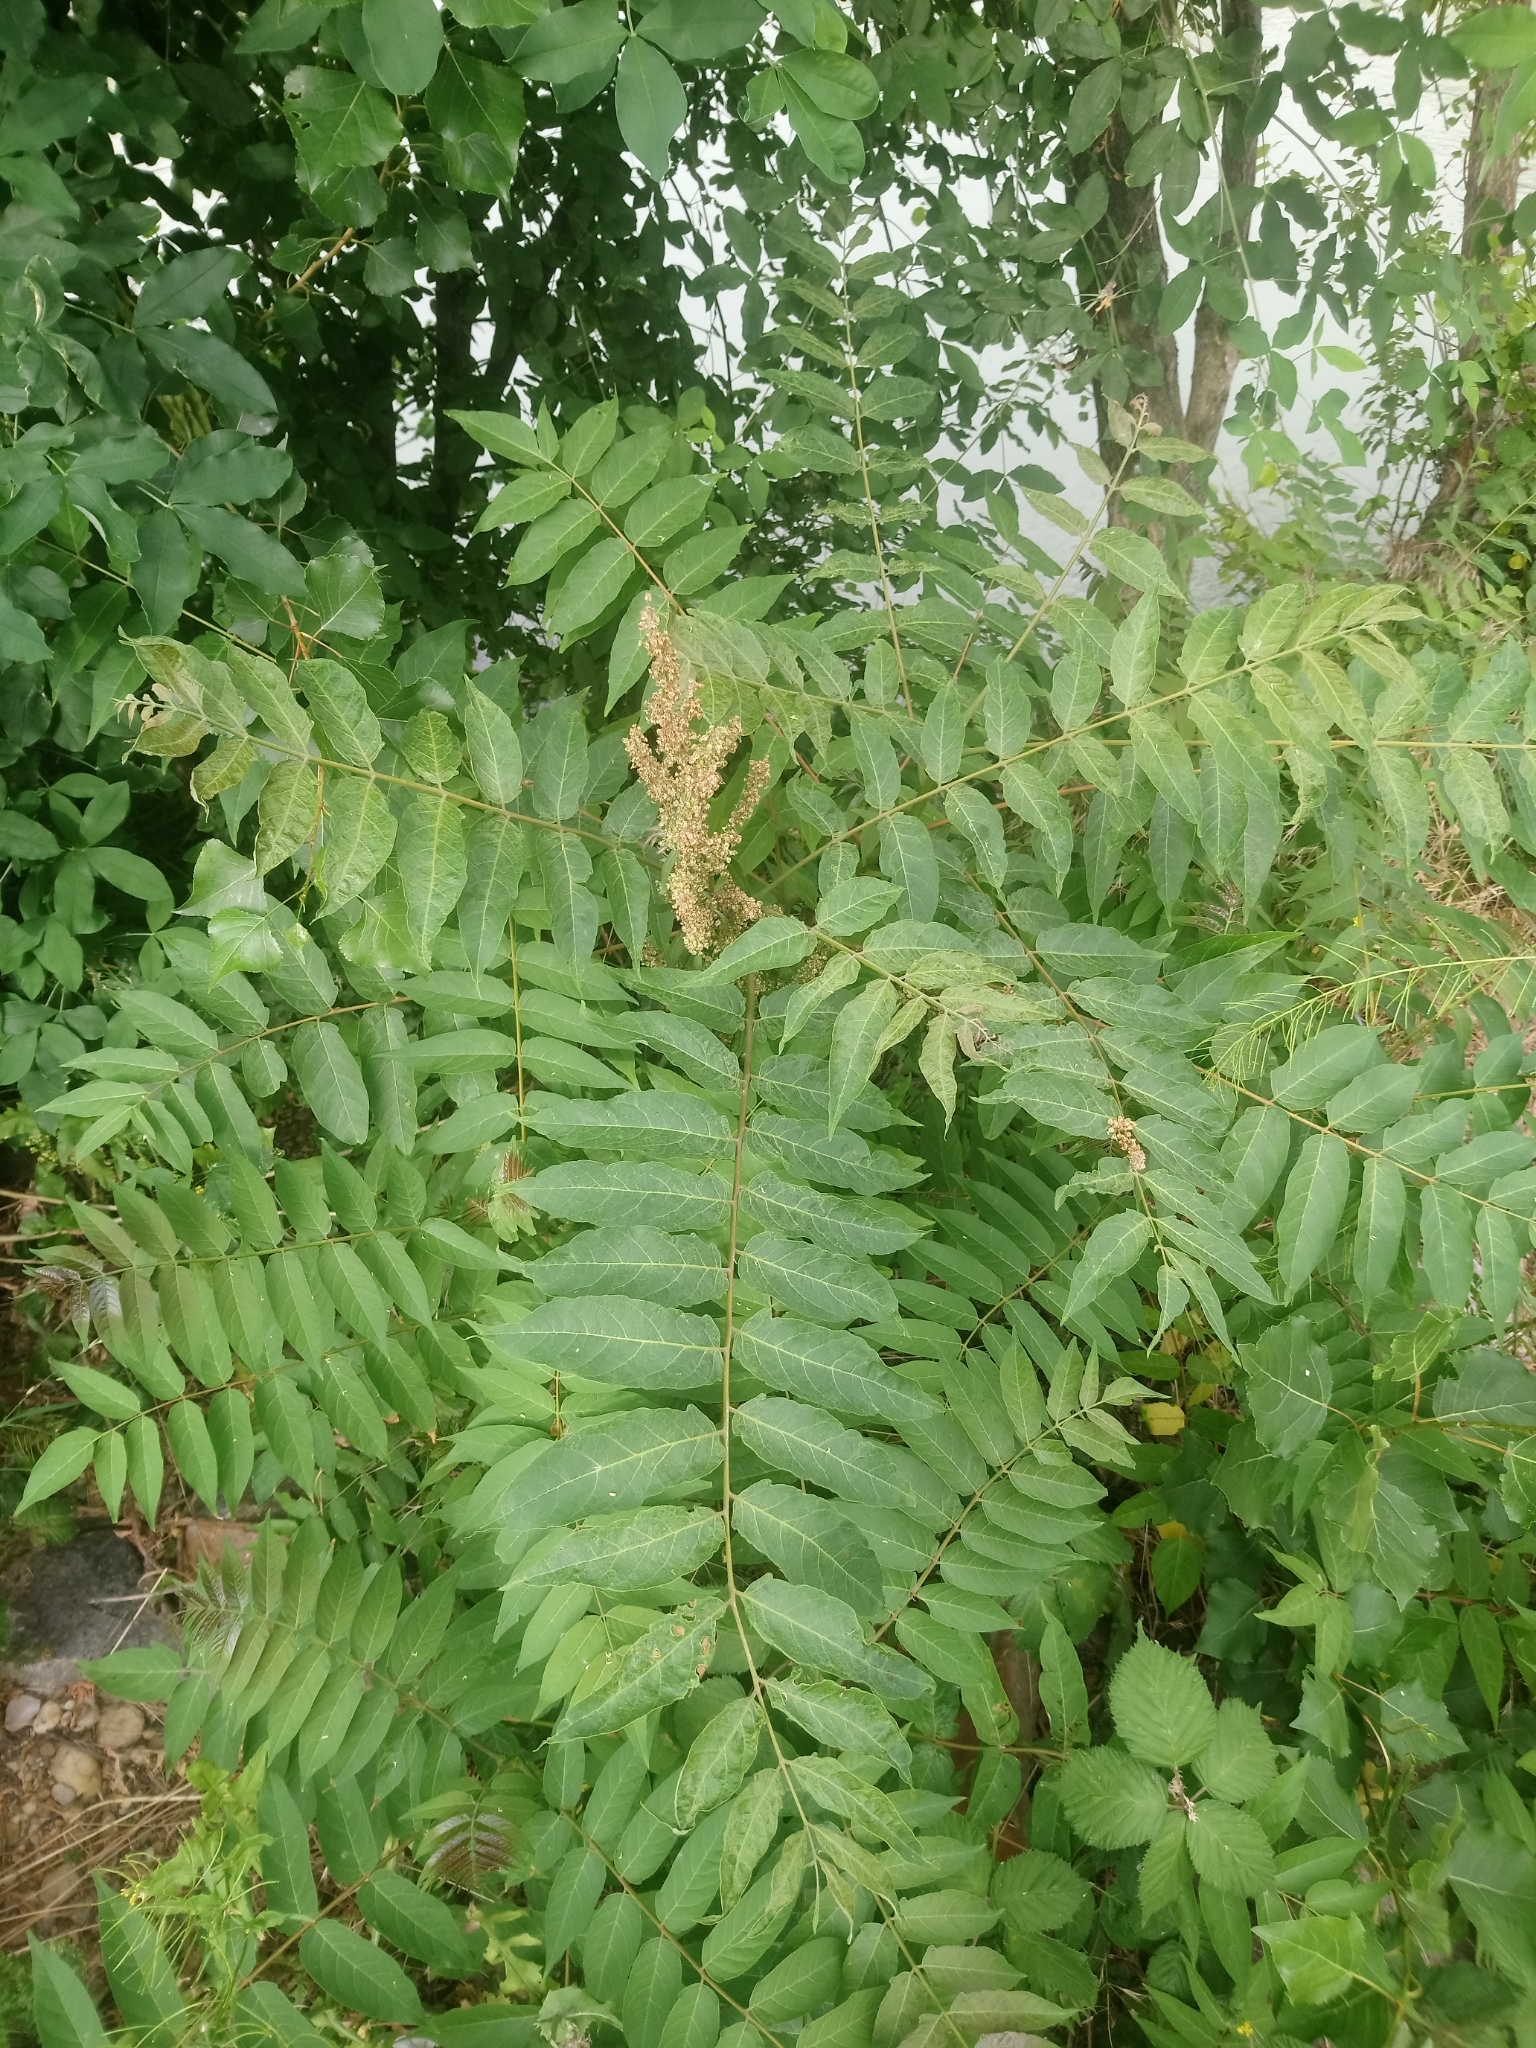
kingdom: Plantae
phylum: Tracheophyta
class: Magnoliopsida
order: Sapindales
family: Simaroubaceae
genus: Ailanthus
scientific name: Ailanthus altissima
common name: Tree-of-heaven
